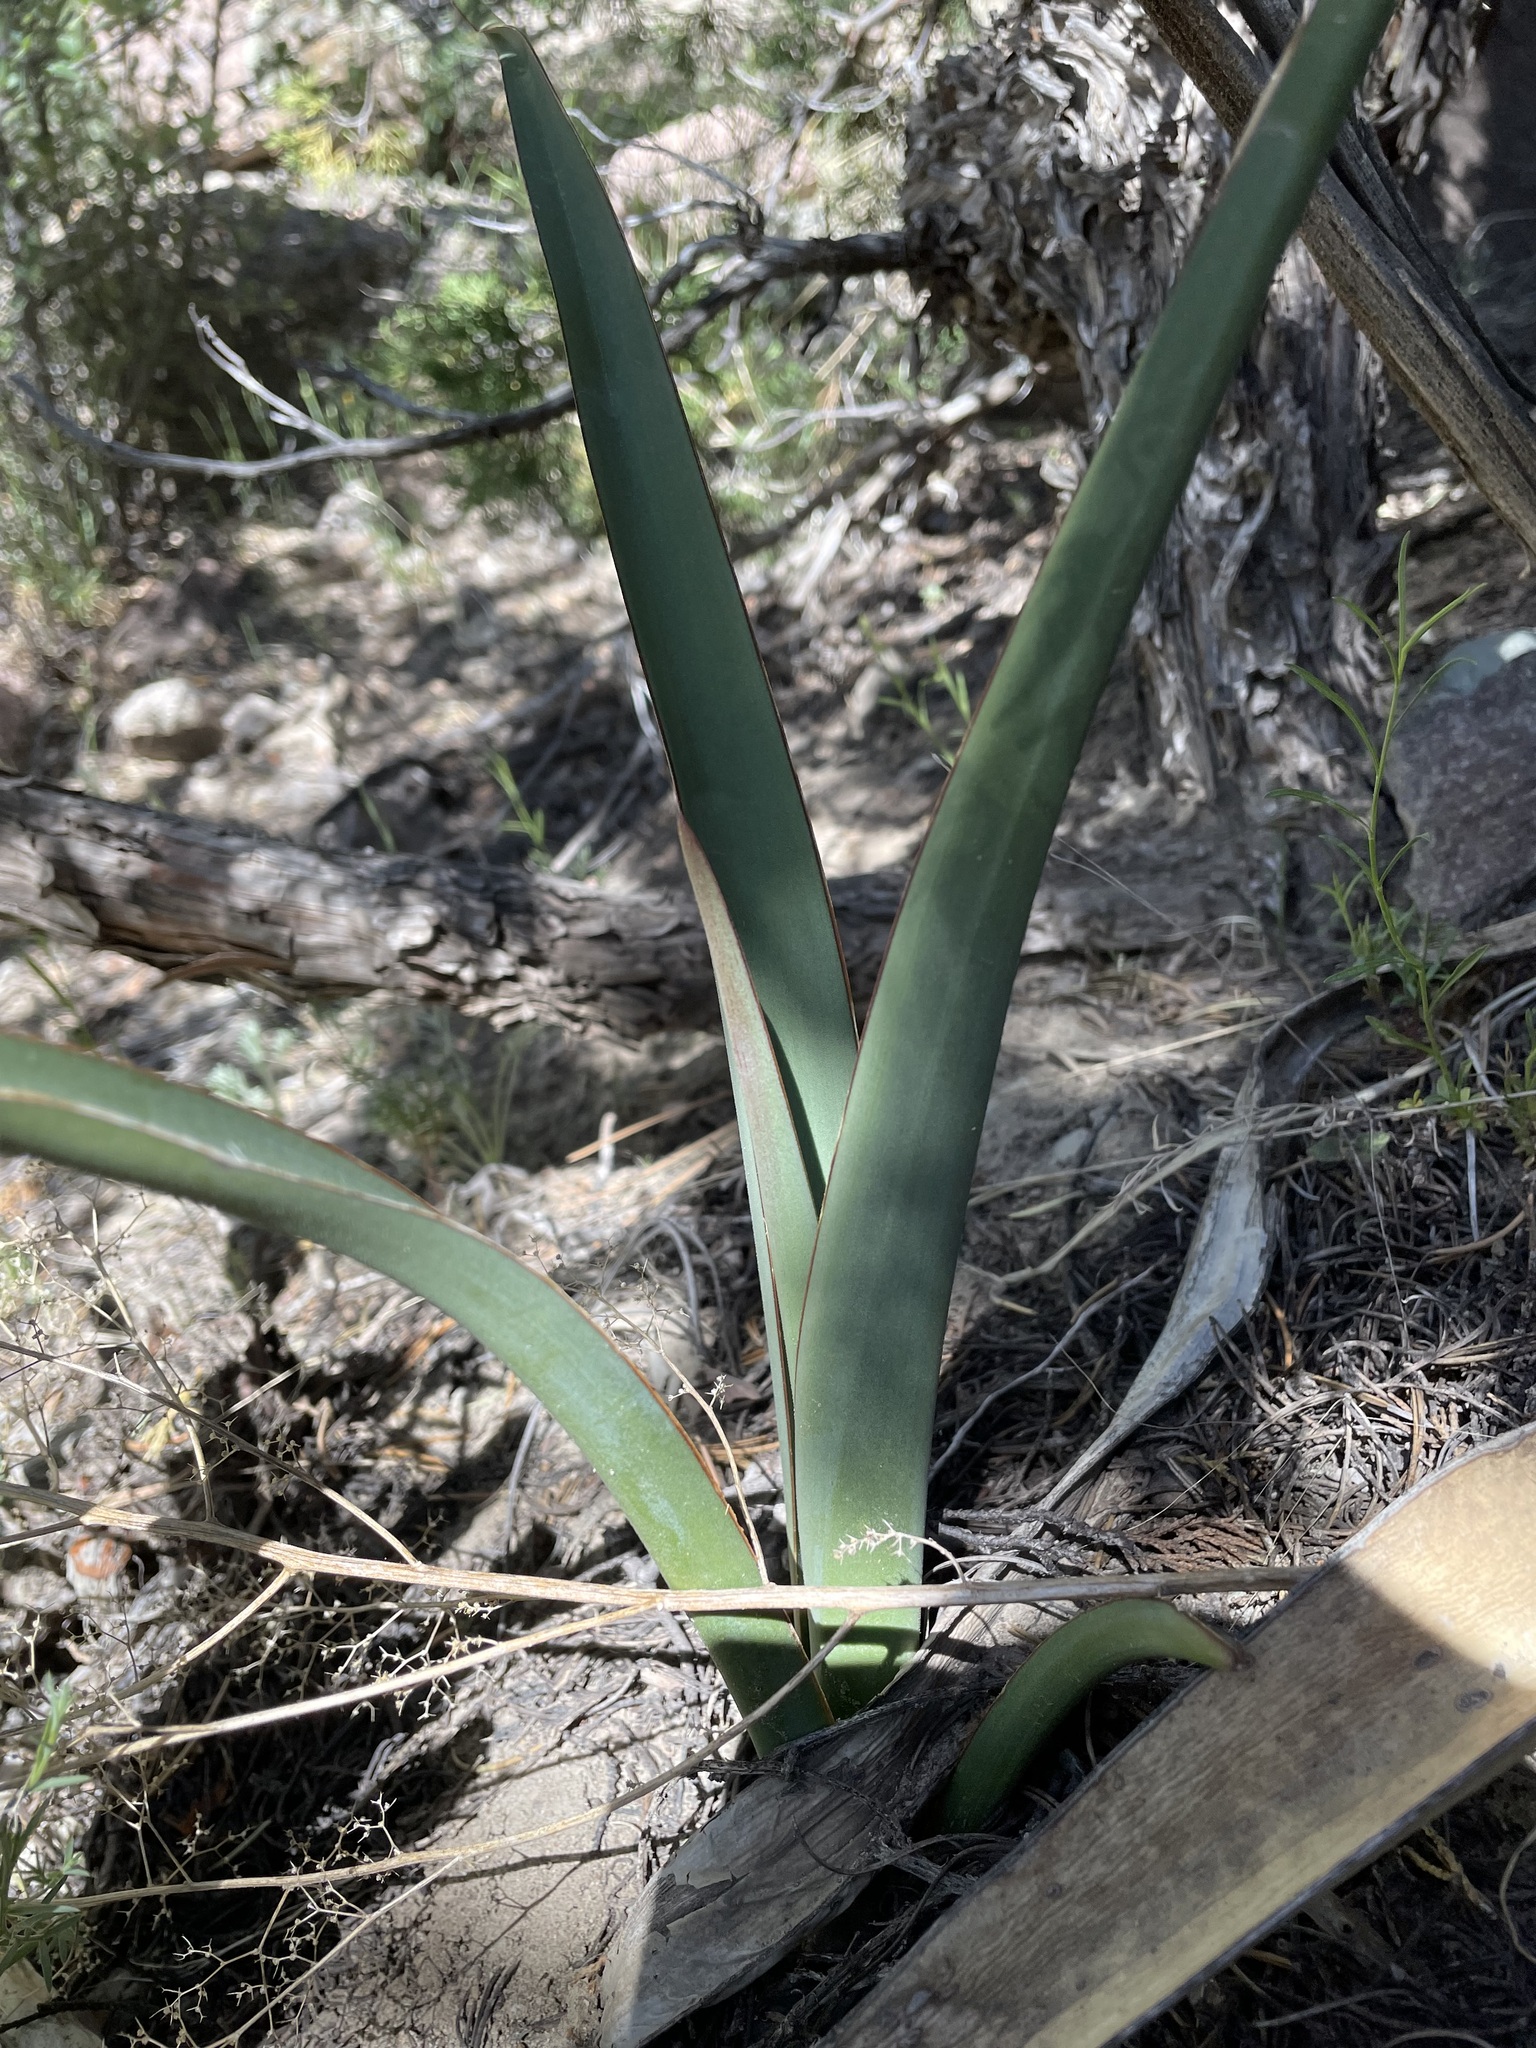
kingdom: Plantae
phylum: Tracheophyta
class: Liliopsida
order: Asparagales
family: Asparagaceae
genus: Yucca
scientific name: Yucca baccata
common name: Banana yucca
